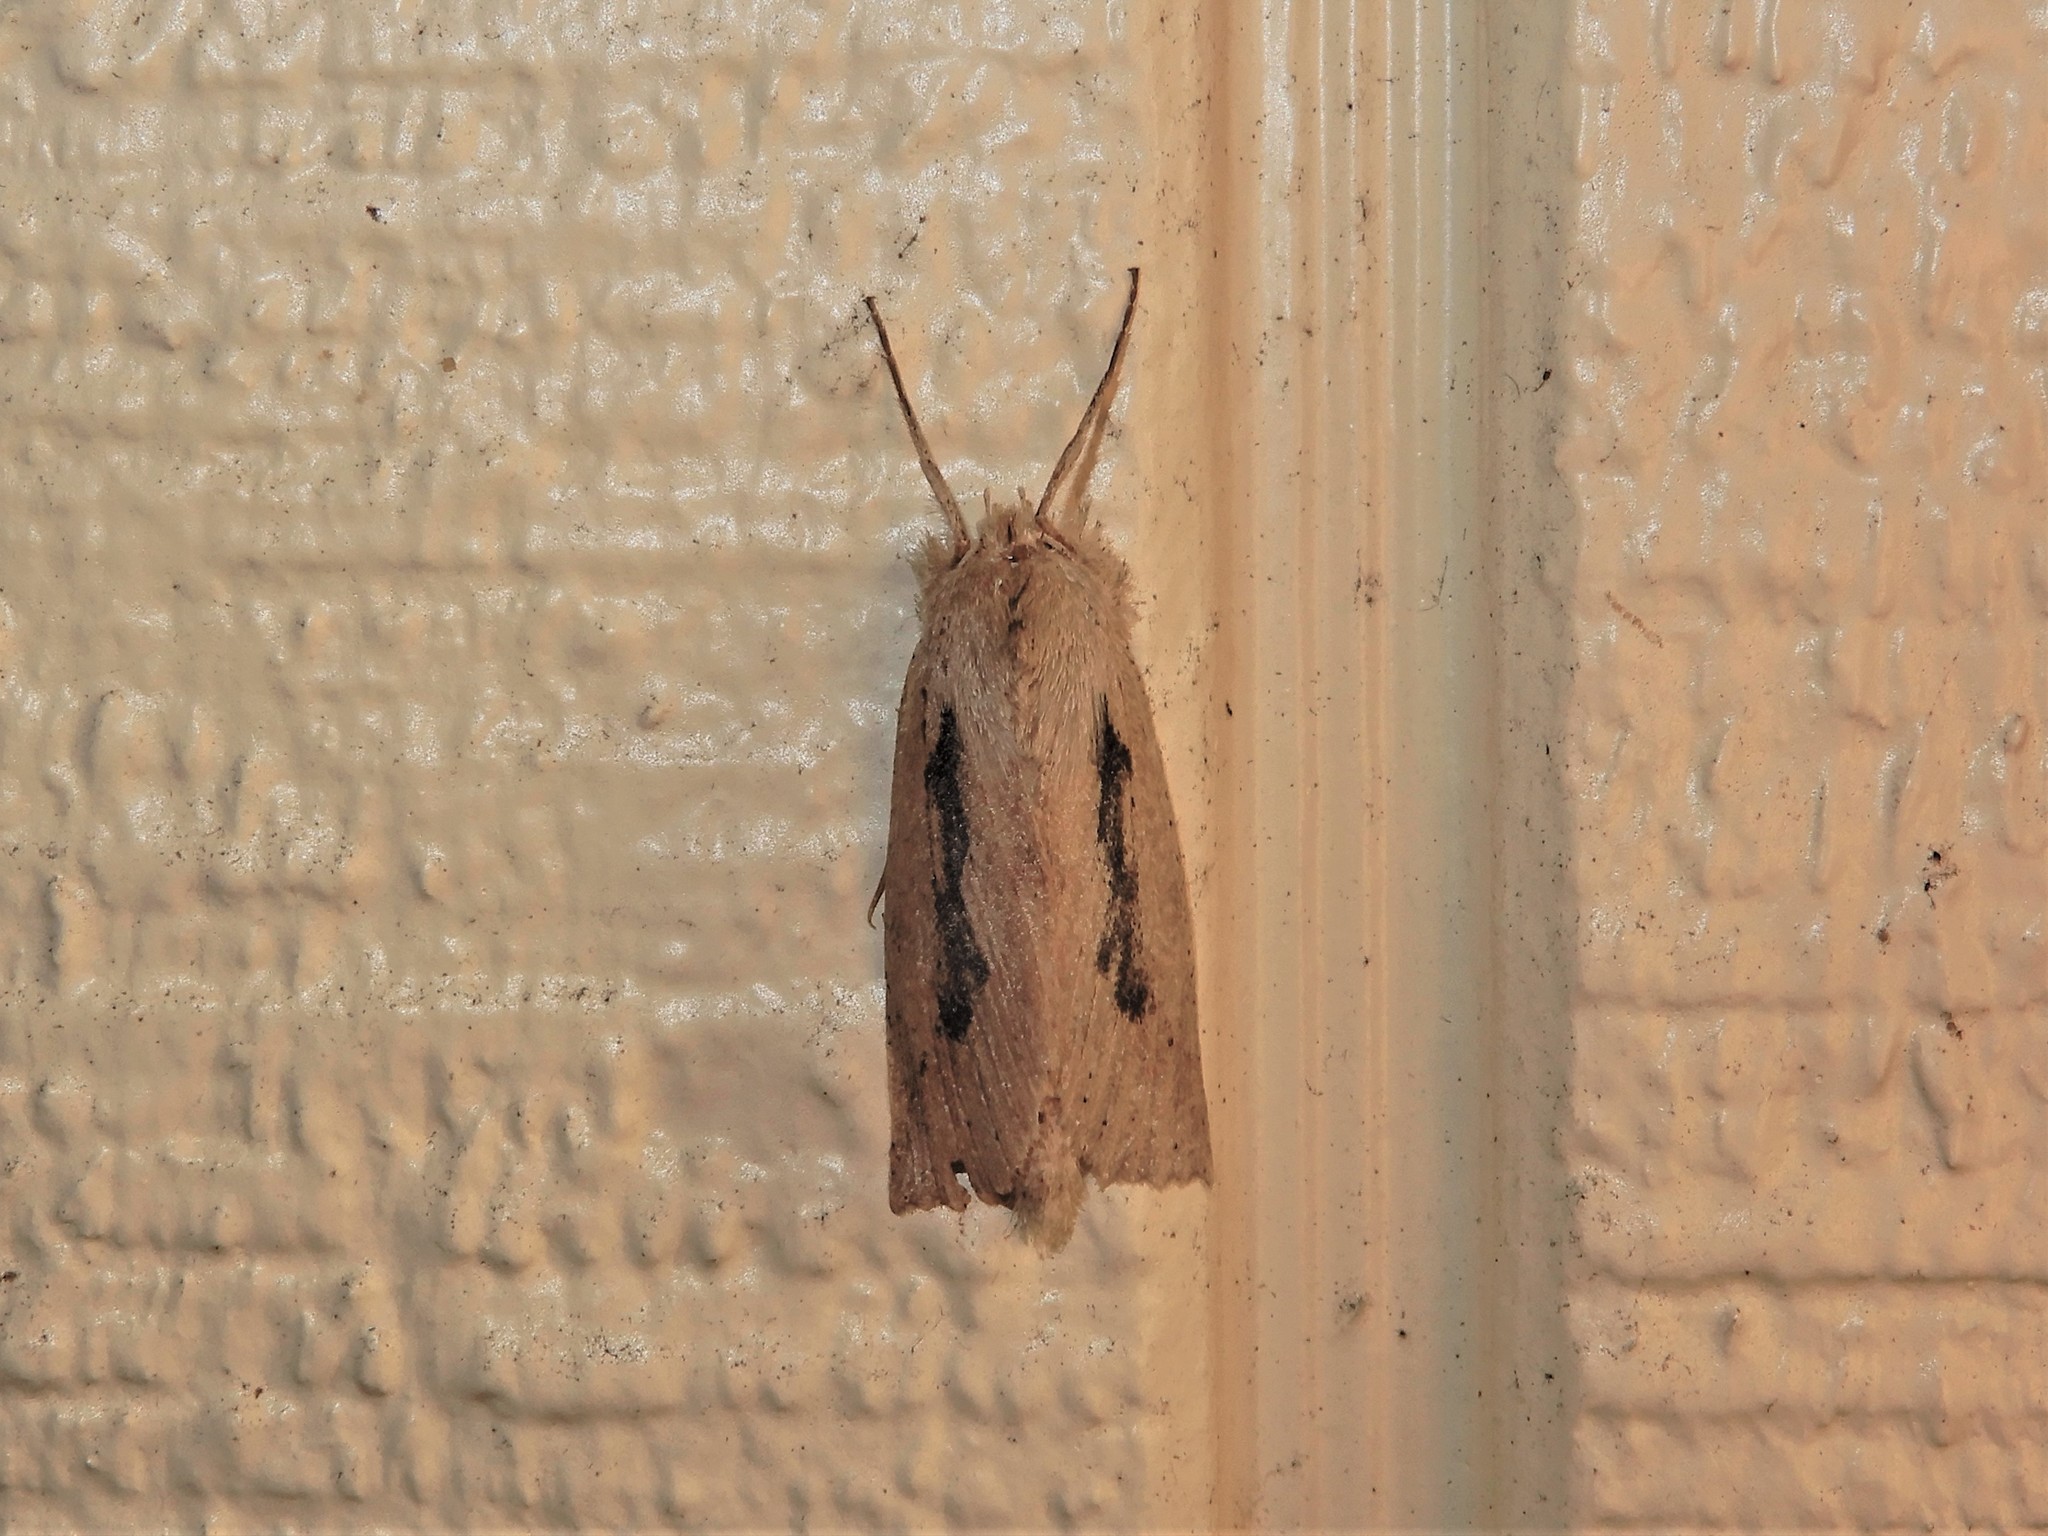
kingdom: Animalia
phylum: Arthropoda
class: Insecta
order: Lepidoptera
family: Geometridae
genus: Declana
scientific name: Declana leptomera
